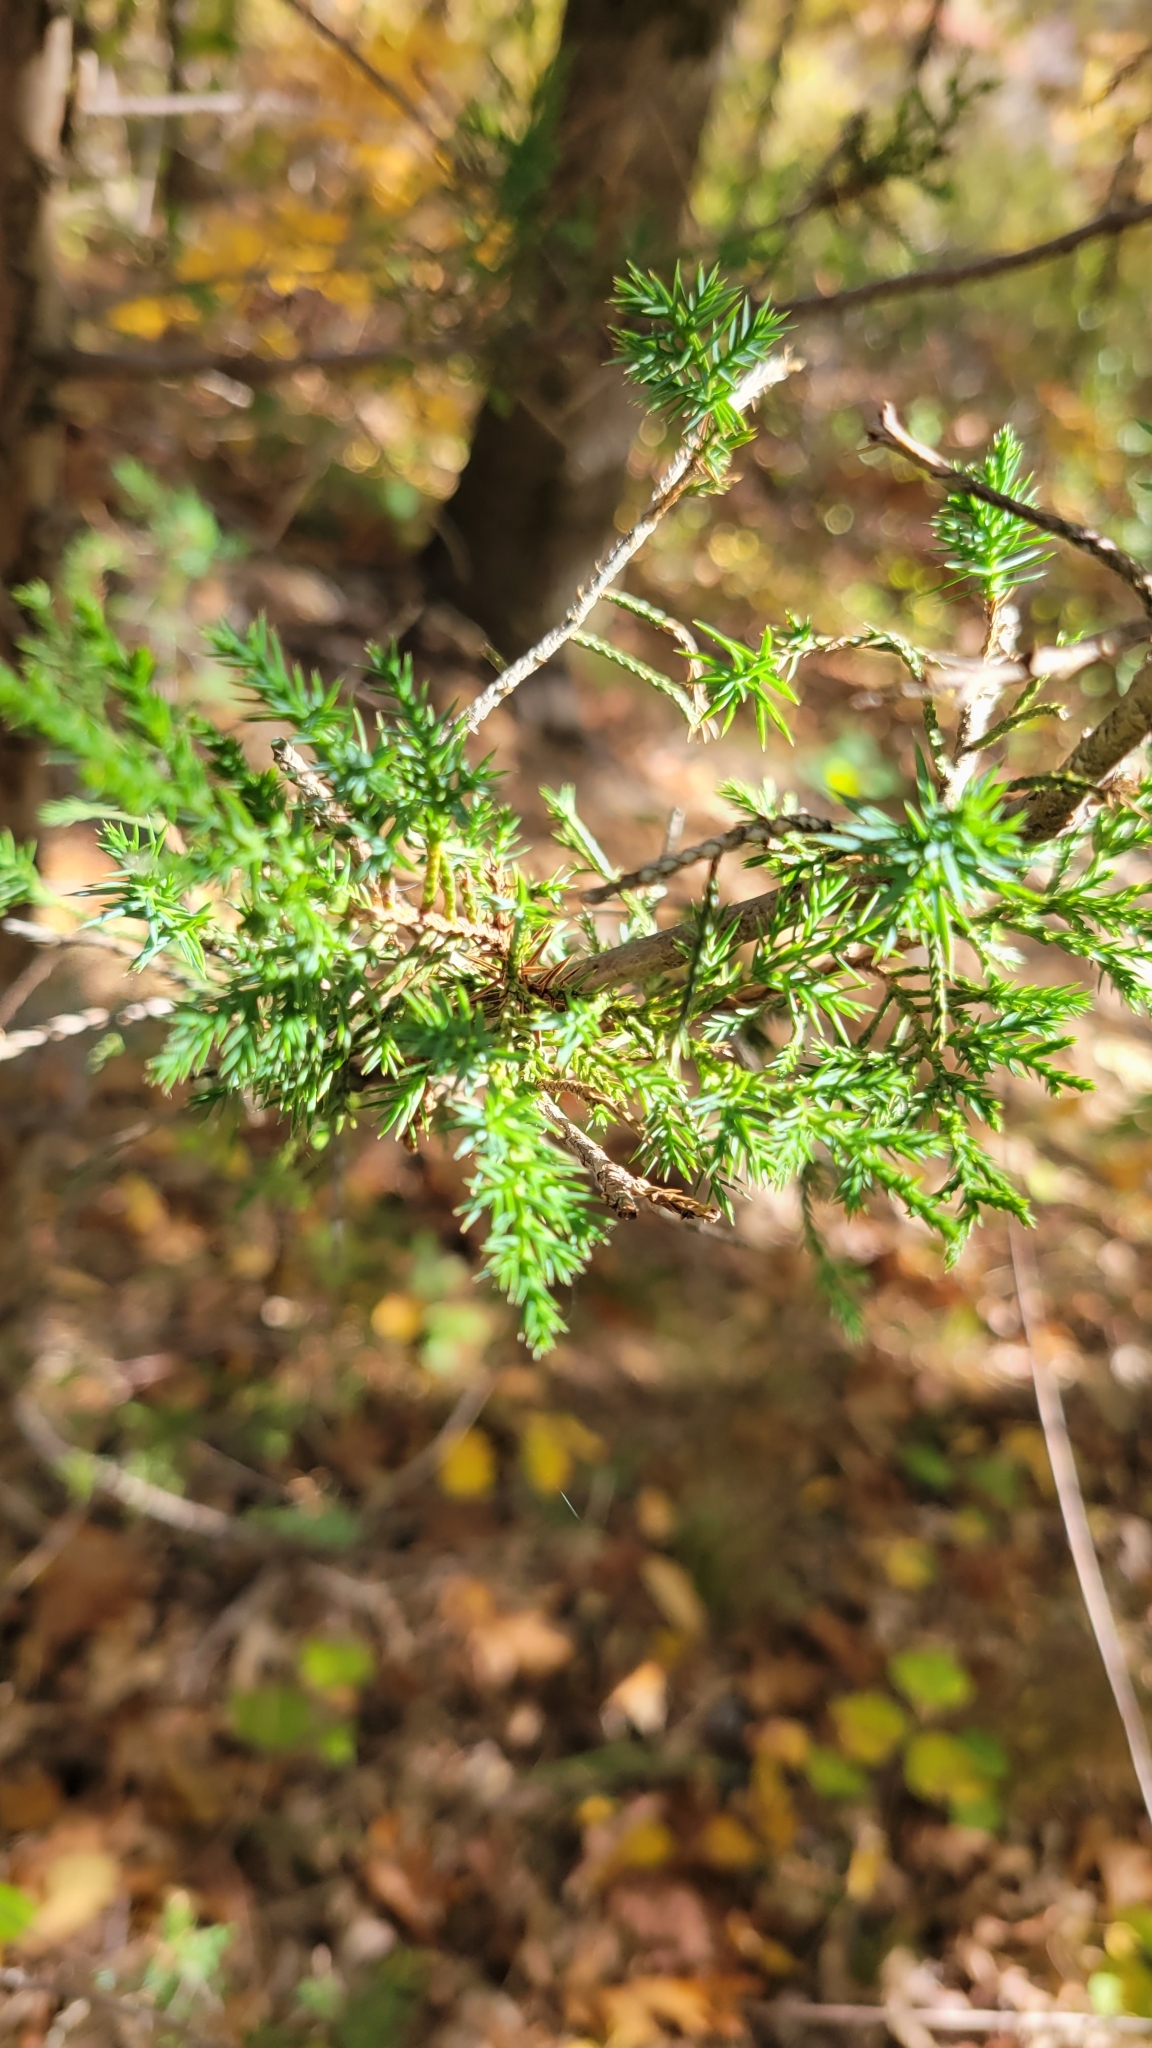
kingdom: Plantae
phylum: Tracheophyta
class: Pinopsida
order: Pinales
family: Cupressaceae
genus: Juniperus
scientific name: Juniperus virginiana
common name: Red juniper
